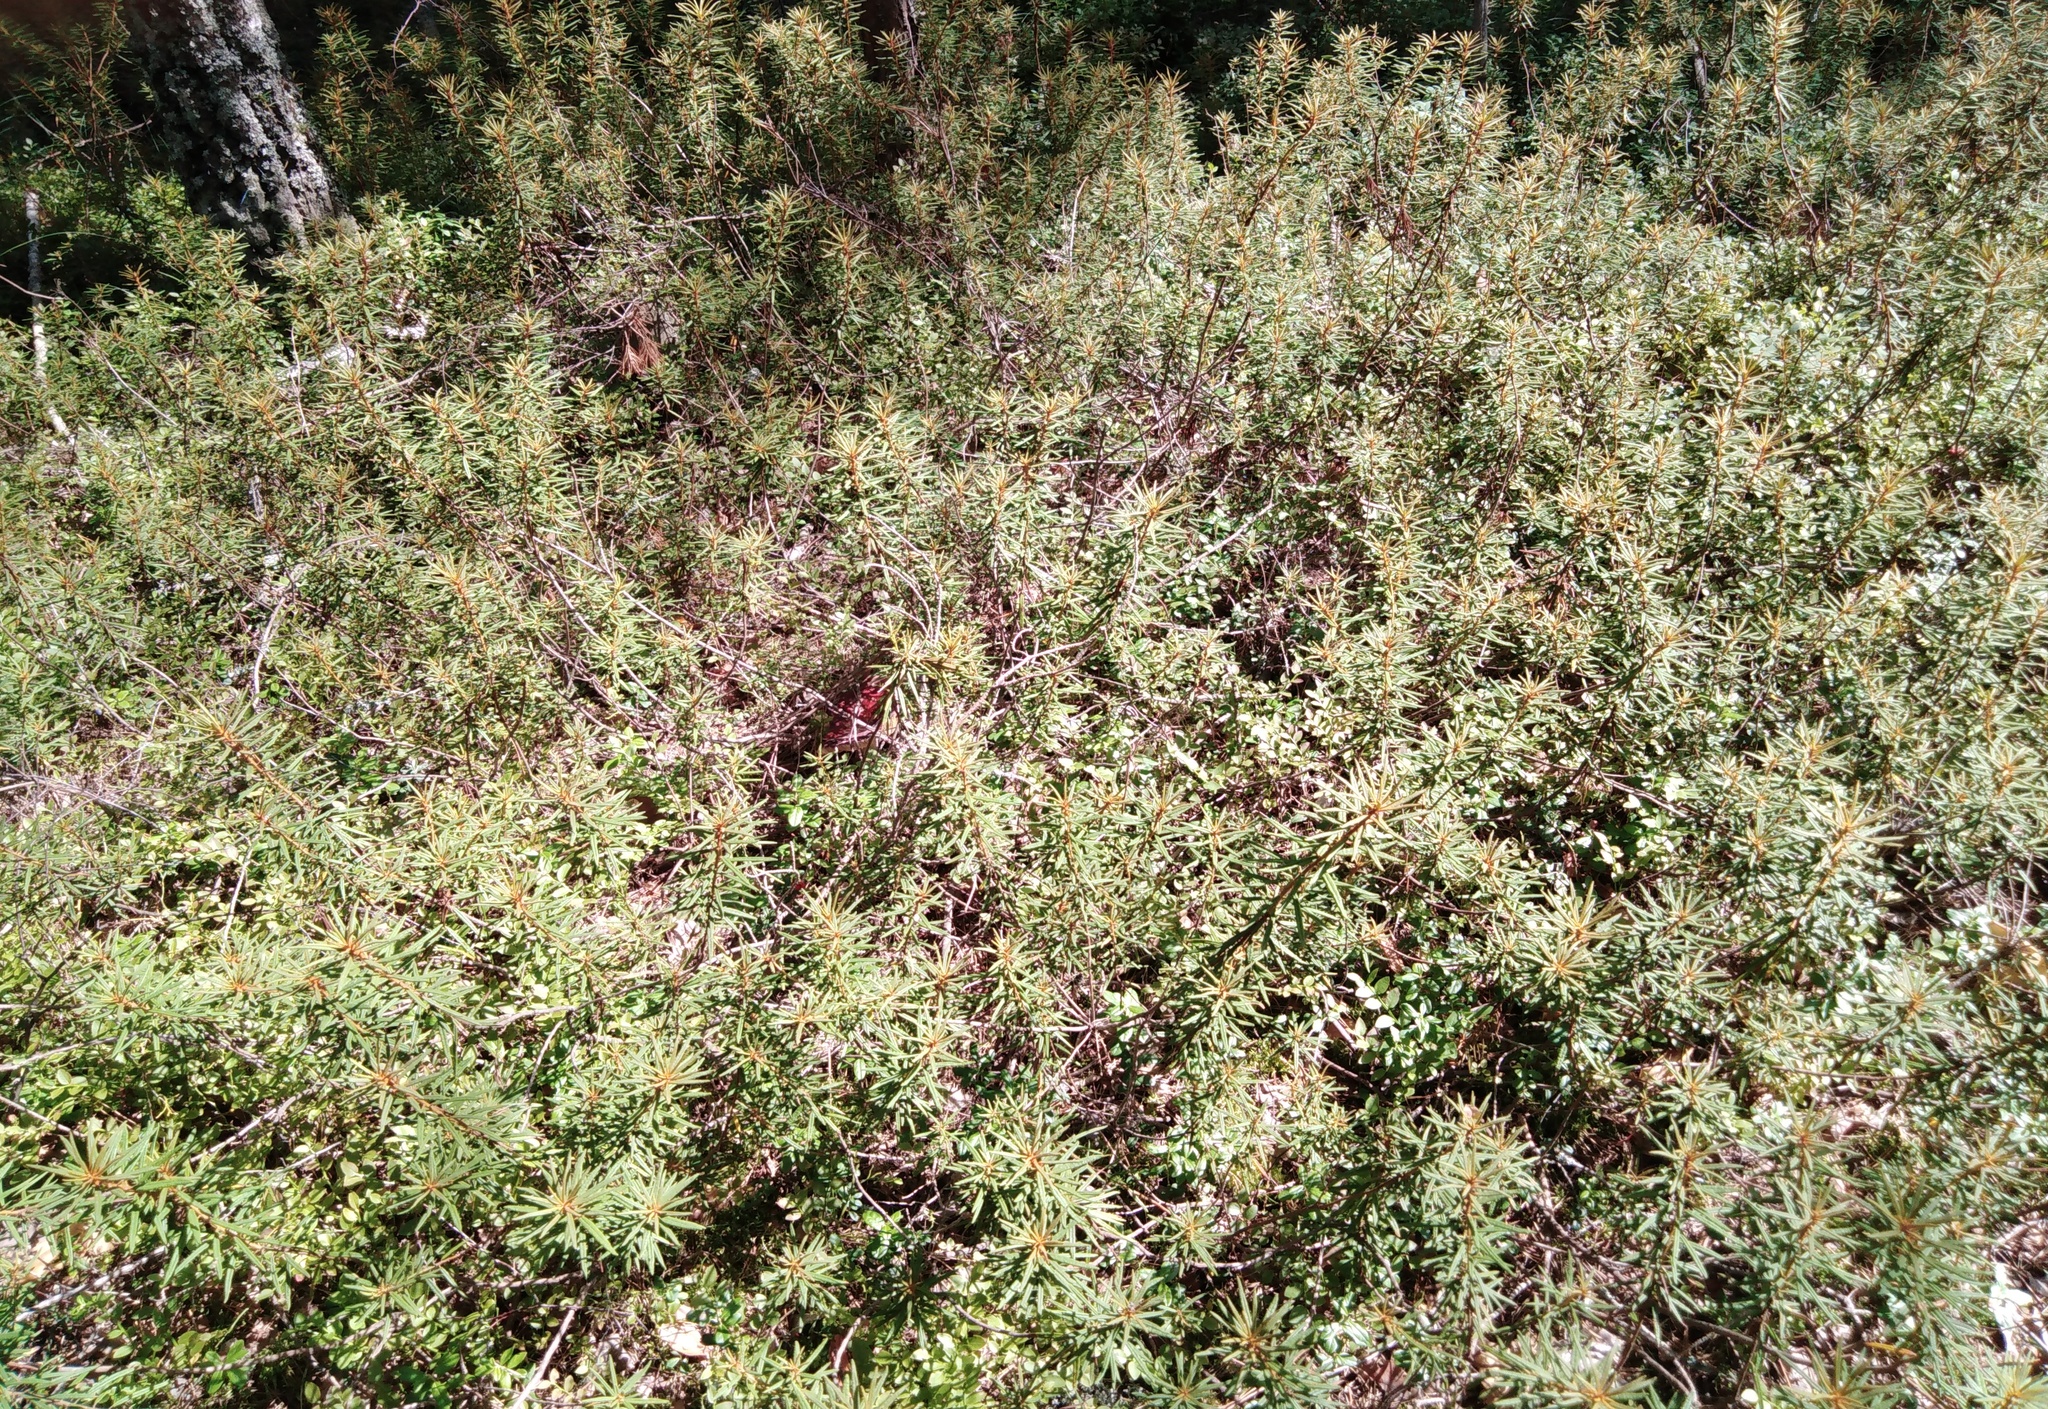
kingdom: Plantae
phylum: Tracheophyta
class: Magnoliopsida
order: Ericales
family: Ericaceae
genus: Rhododendron
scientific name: Rhododendron tomentosum
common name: Marsh labrador tea
